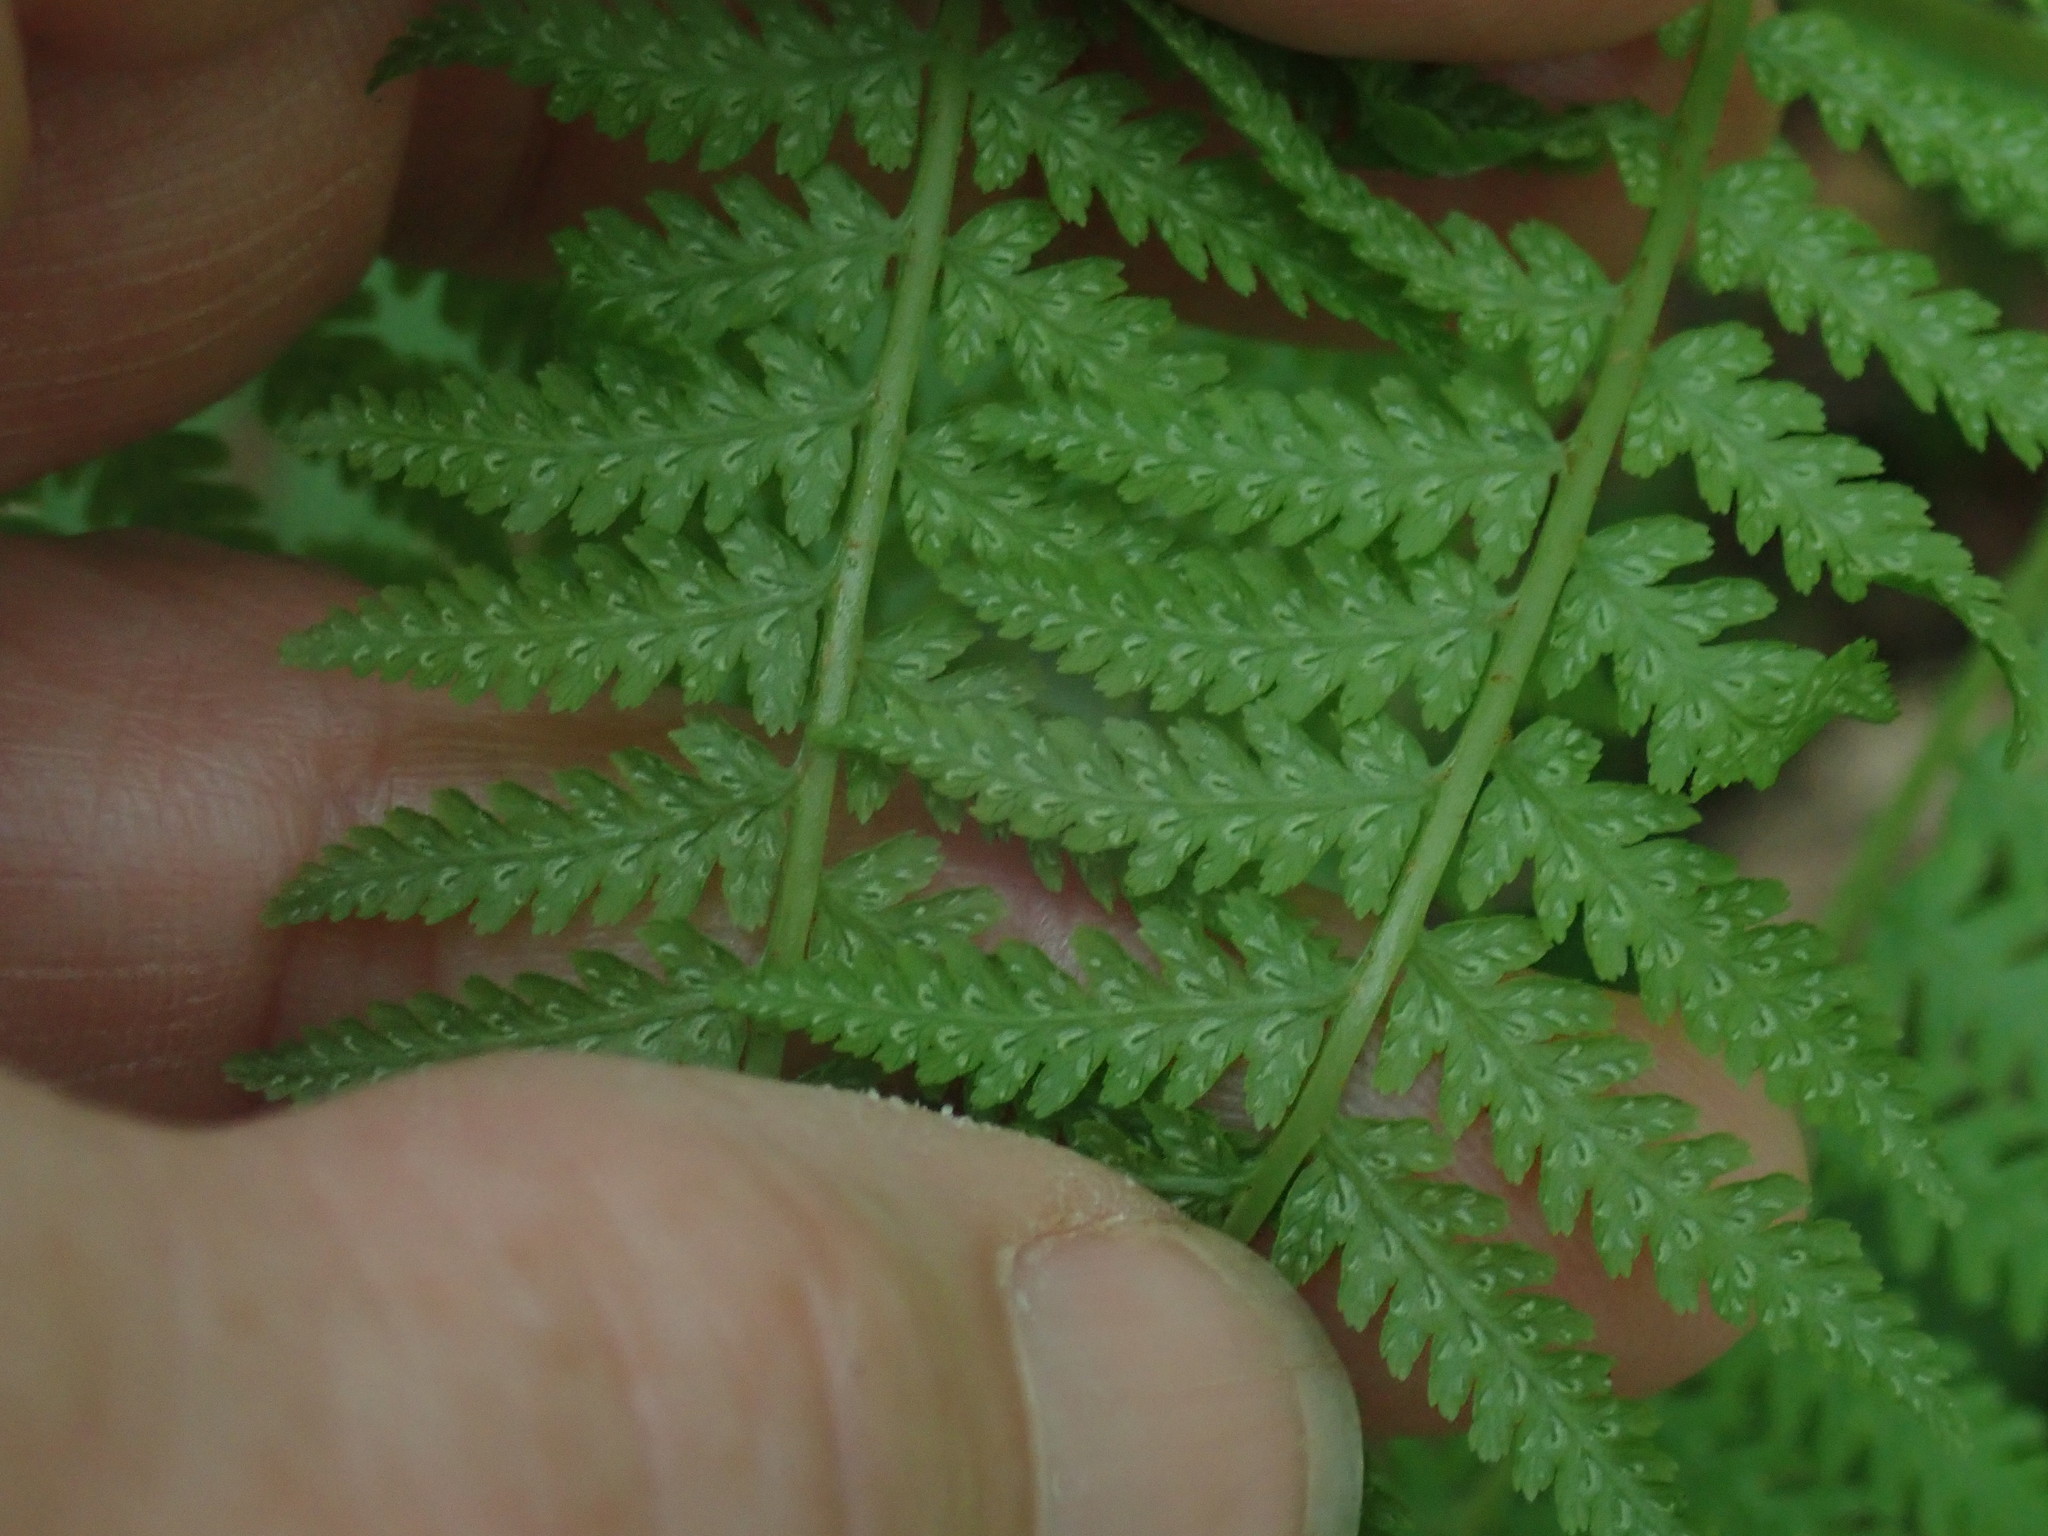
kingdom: Plantae
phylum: Tracheophyta
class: Polypodiopsida
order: Polypodiales
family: Athyriaceae
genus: Athyrium
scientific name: Athyrium angustum
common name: Northern lady fern
